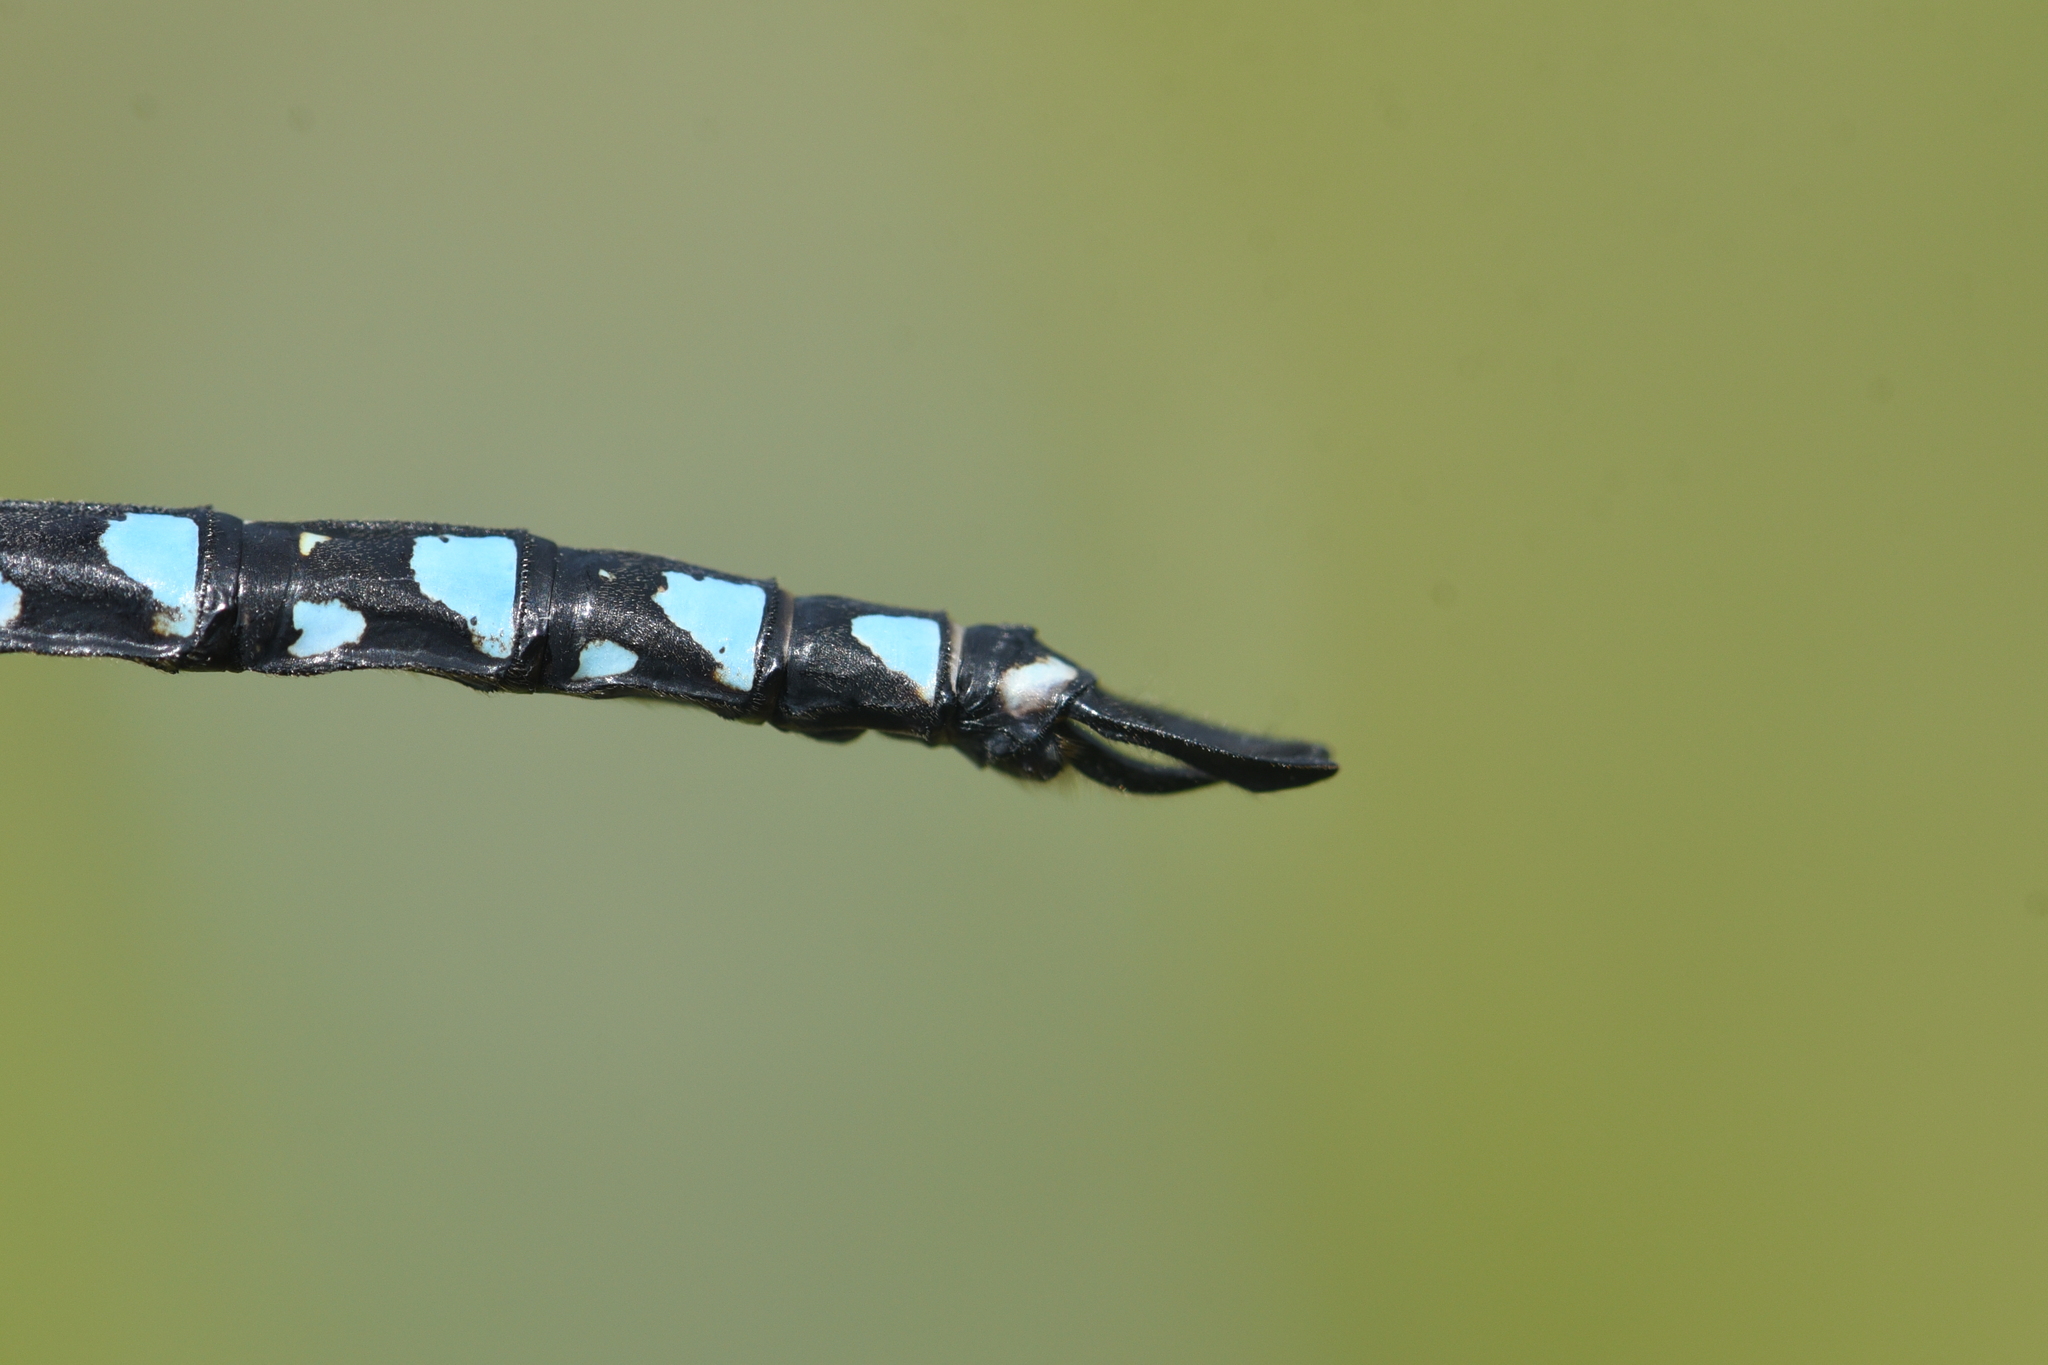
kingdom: Animalia
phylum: Arthropoda
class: Insecta
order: Odonata
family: Aeshnidae
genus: Aeshna
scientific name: Aeshna interrupta
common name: Variable darner
